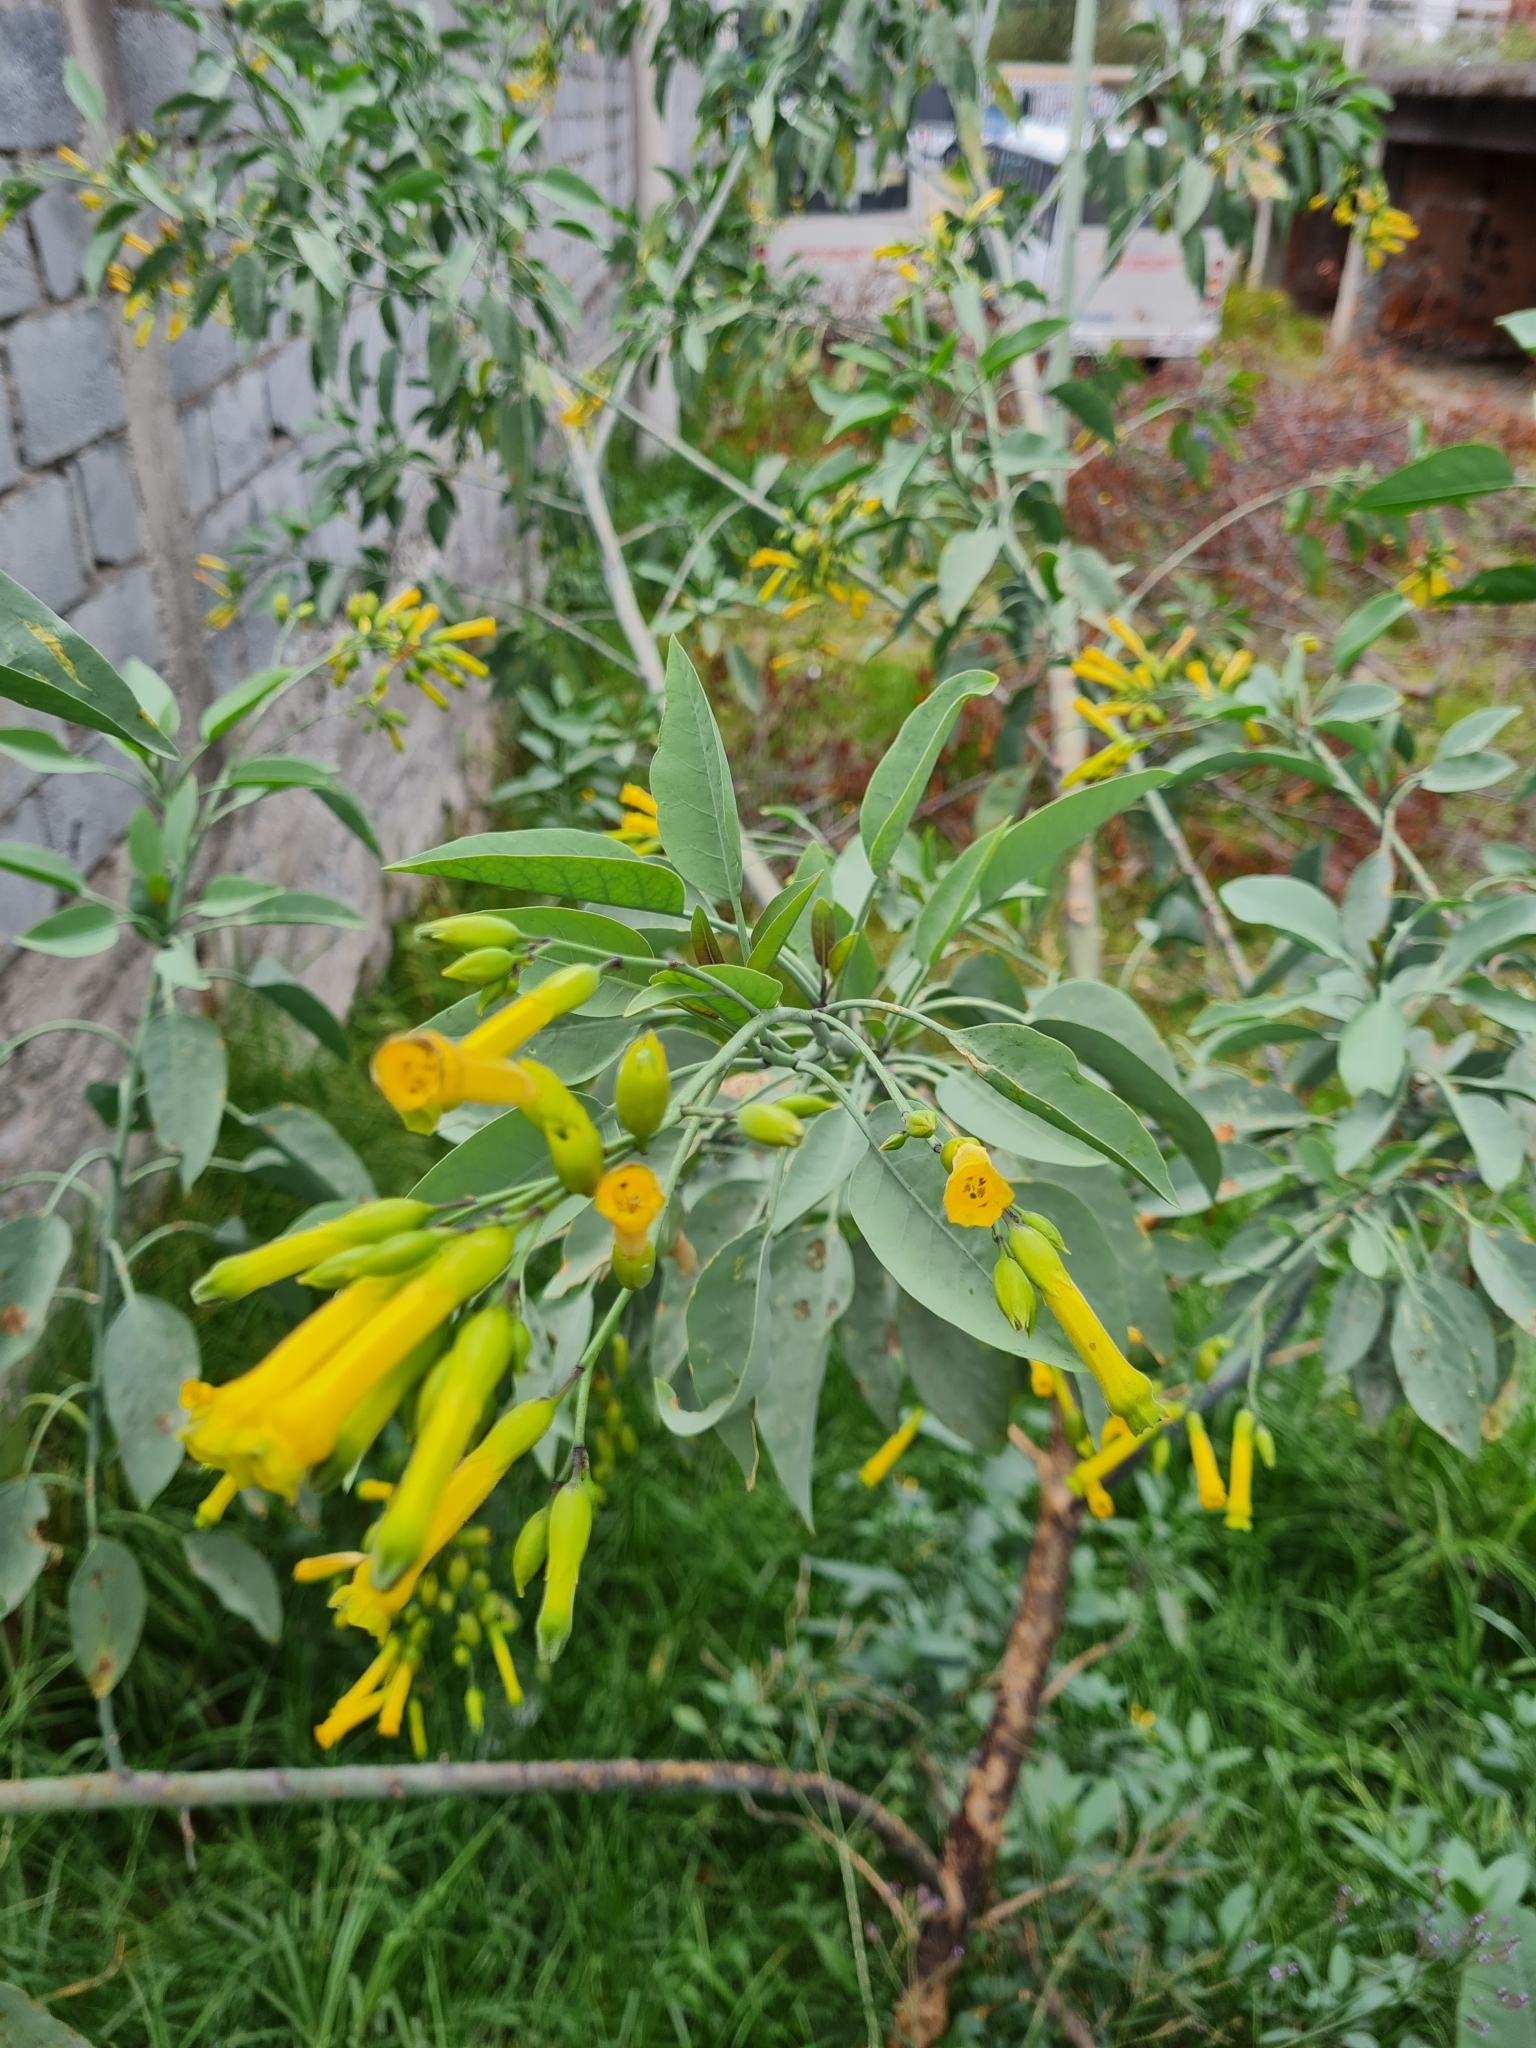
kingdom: Plantae
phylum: Tracheophyta
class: Magnoliopsida
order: Solanales
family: Solanaceae
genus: Nicotiana
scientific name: Nicotiana glauca
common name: Tree tobacco
